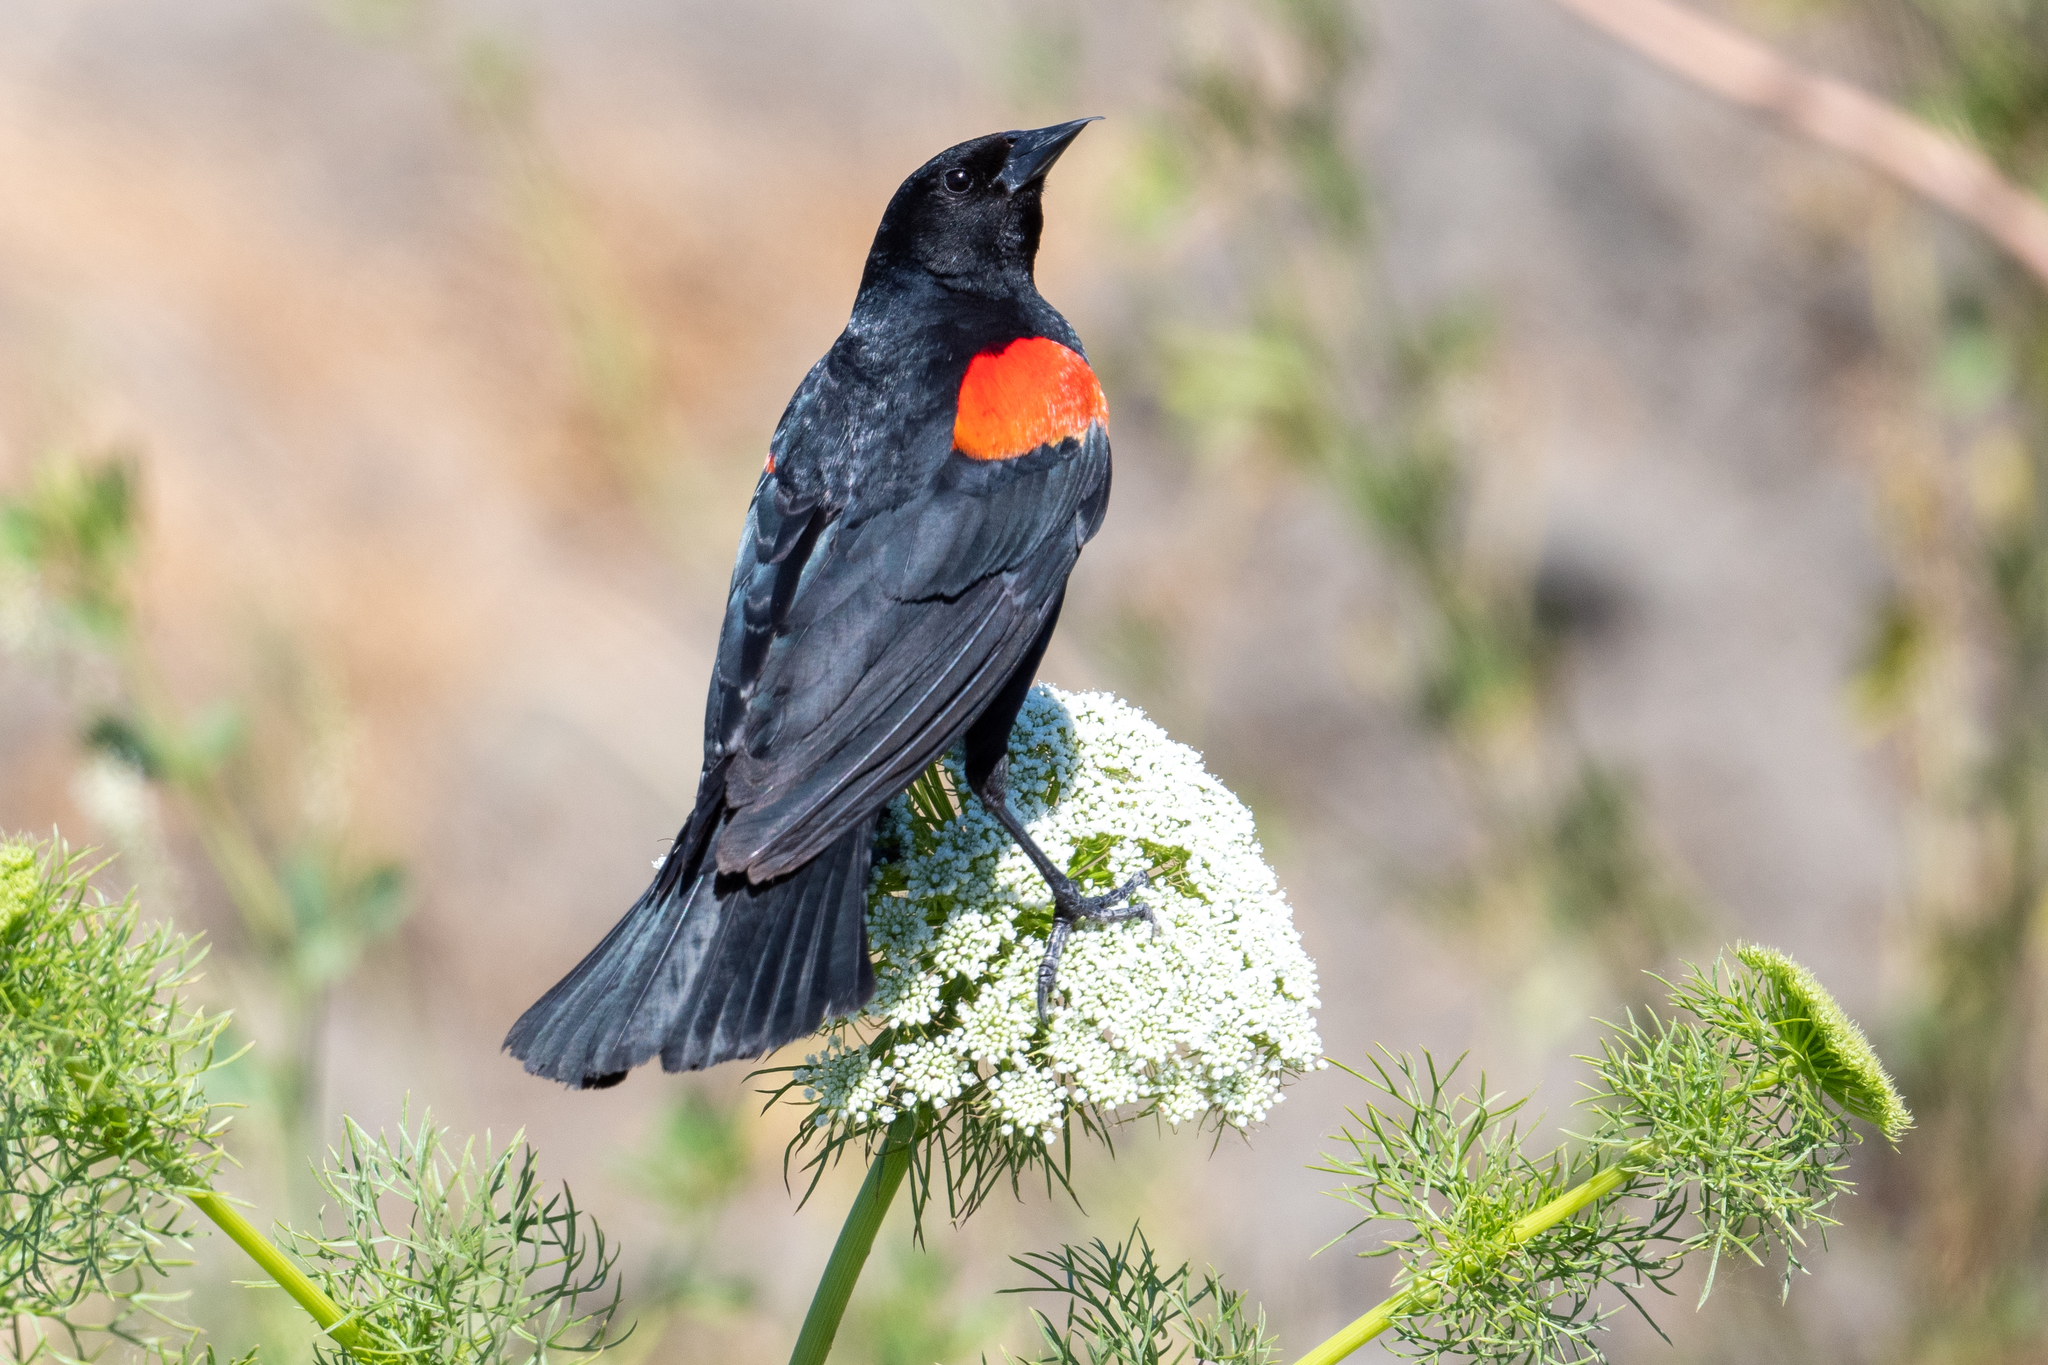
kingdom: Animalia
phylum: Chordata
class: Aves
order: Passeriformes
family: Icteridae
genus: Agelaius
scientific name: Agelaius phoeniceus
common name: Red-winged blackbird
